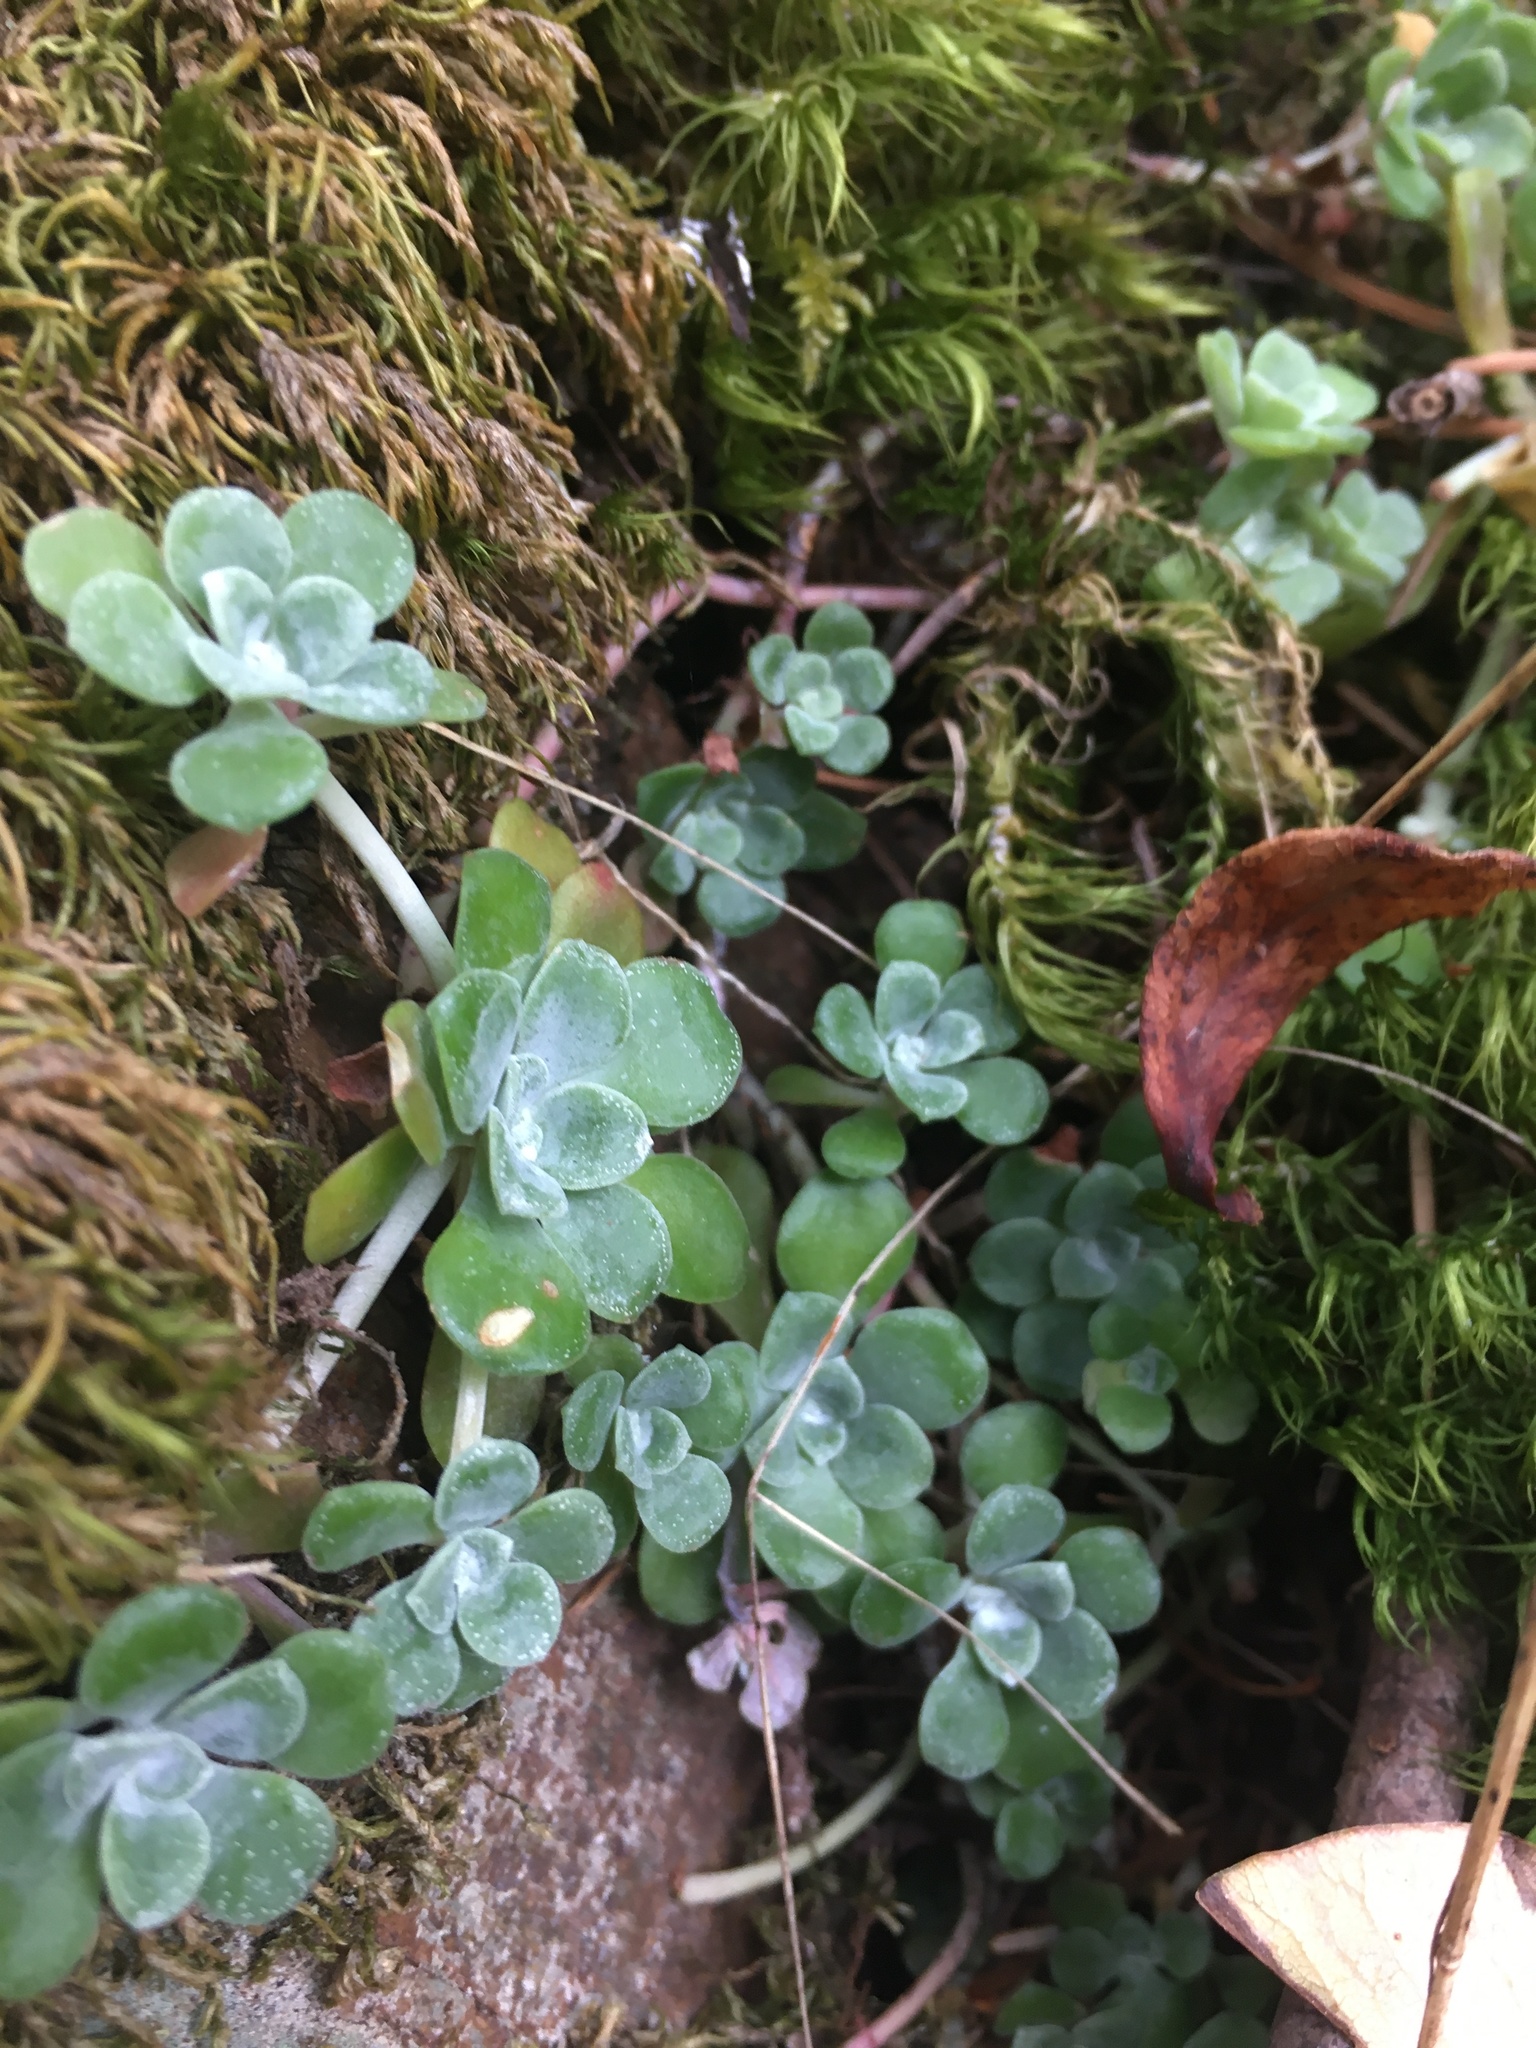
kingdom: Plantae
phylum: Tracheophyta
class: Magnoliopsida
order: Saxifragales
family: Crassulaceae
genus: Sedum
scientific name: Sedum spathulifolium
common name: Colorado stonecrop
